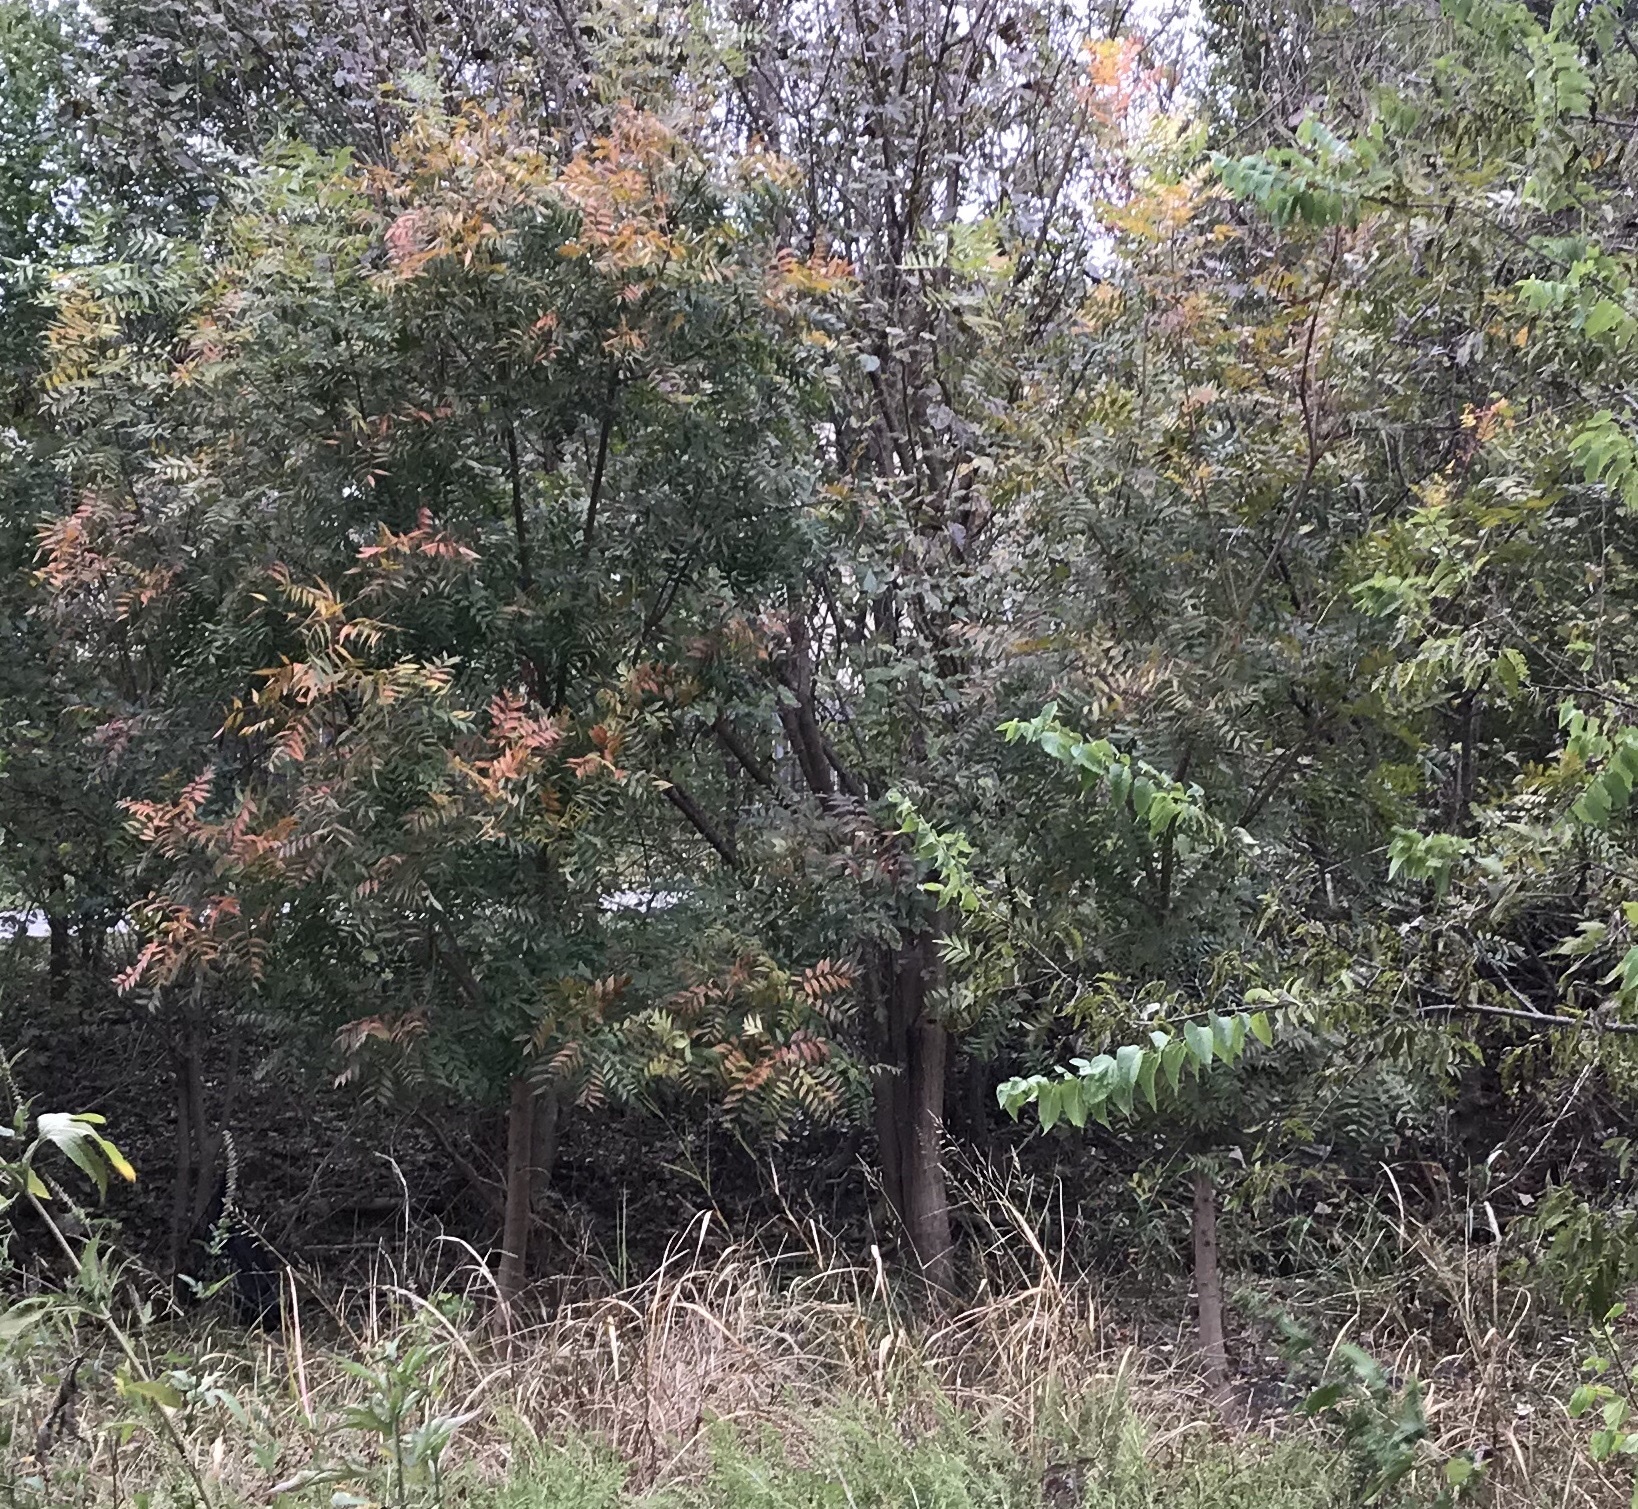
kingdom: Plantae
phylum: Tracheophyta
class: Magnoliopsida
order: Sapindales
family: Anacardiaceae
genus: Pistacia
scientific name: Pistacia chinensis
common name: Chinese pistache
